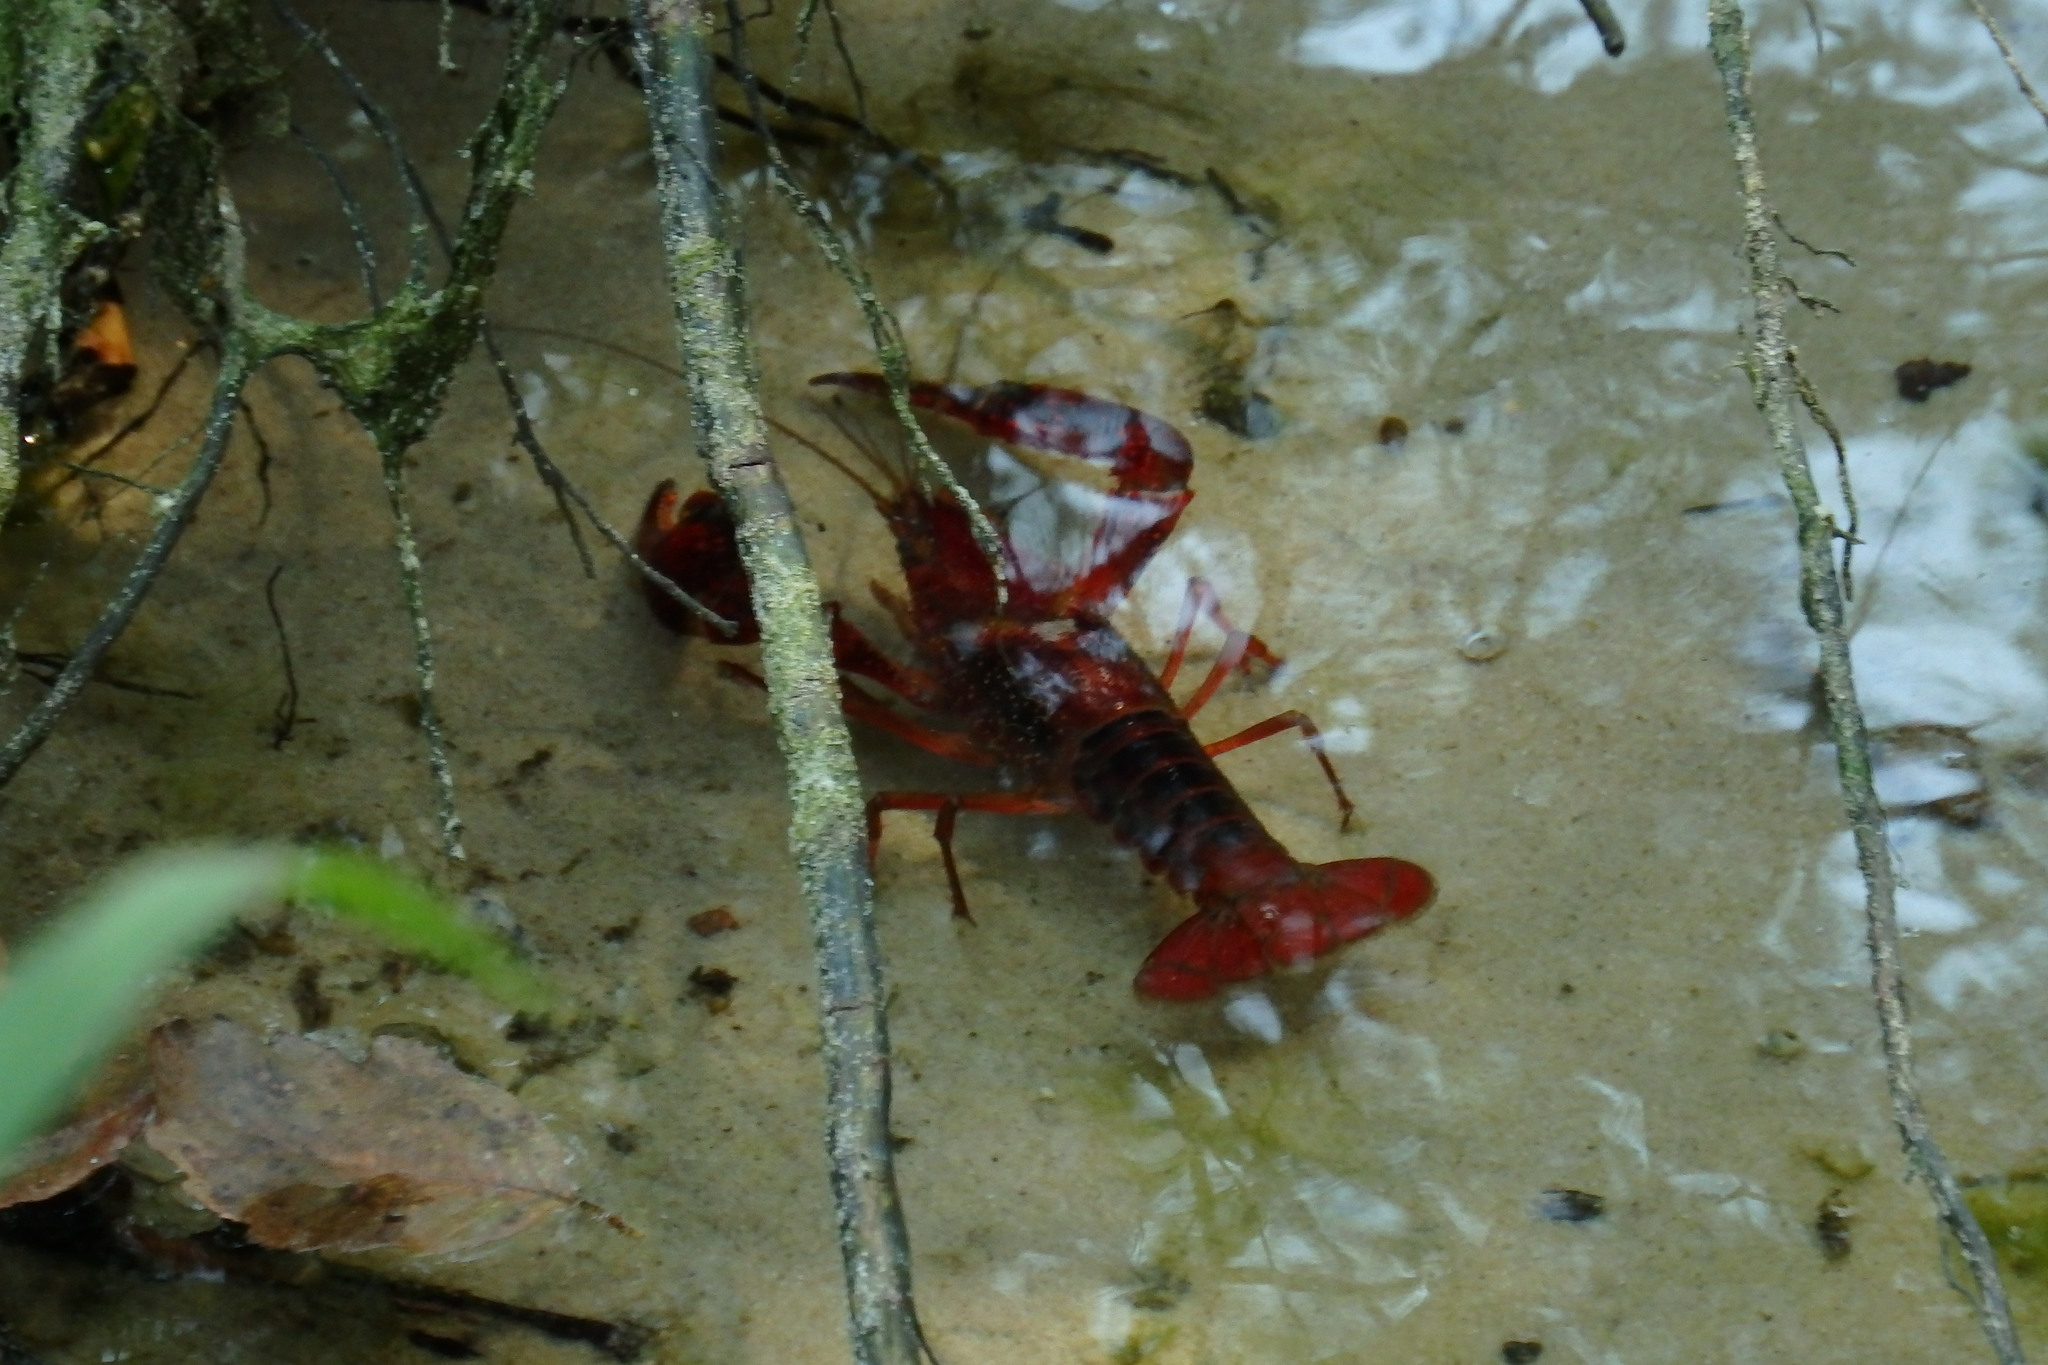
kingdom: Animalia
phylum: Arthropoda
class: Malacostraca
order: Decapoda
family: Cambaridae
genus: Procambarus
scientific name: Procambarus clarkii
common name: Red swamp crayfish
